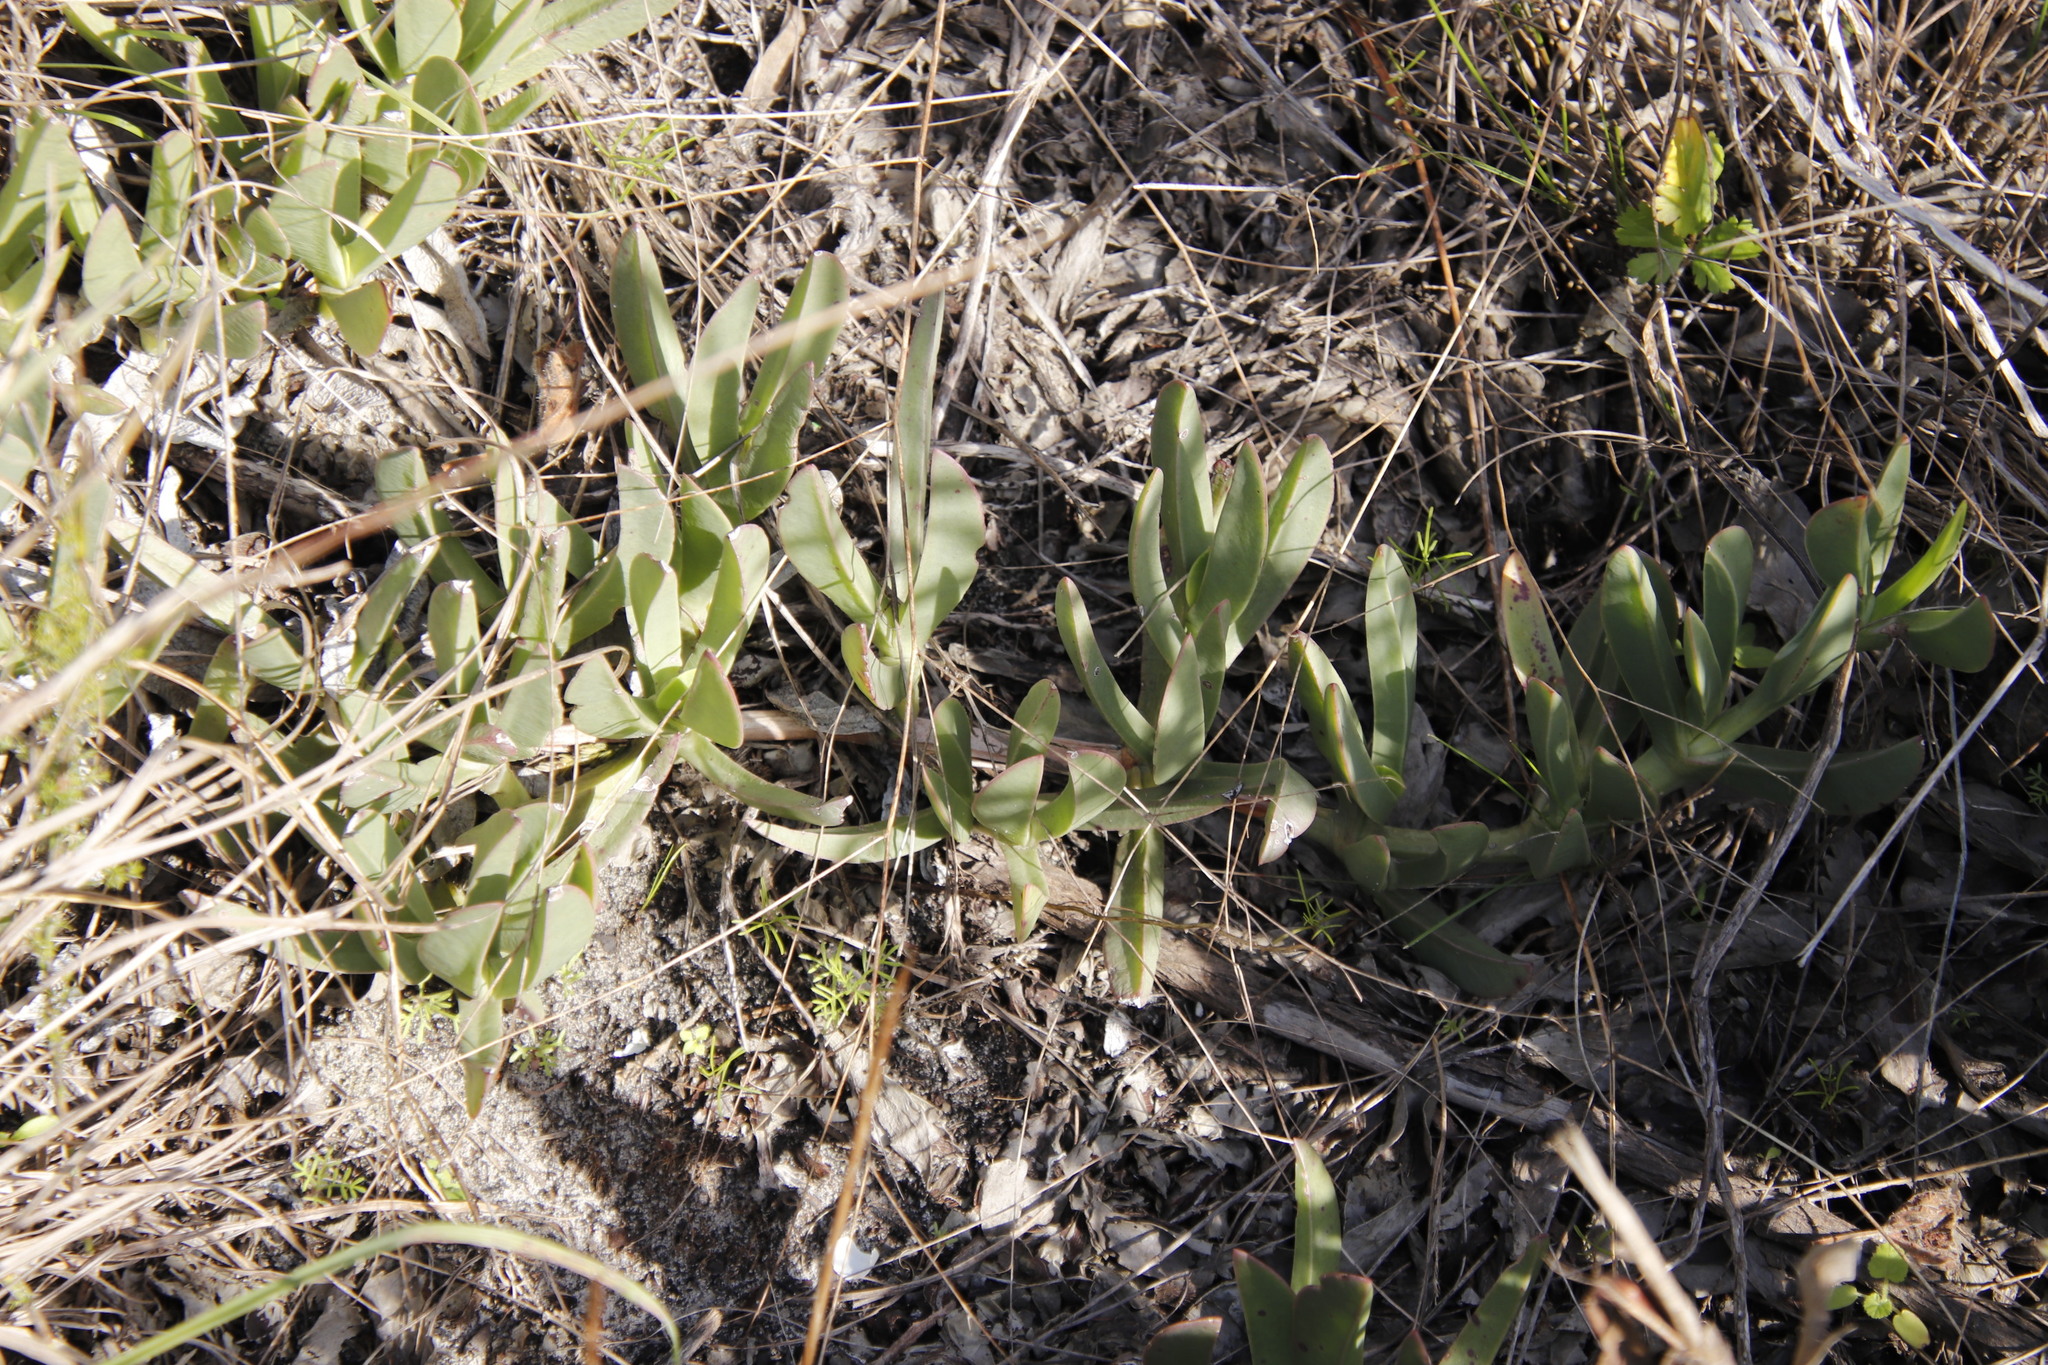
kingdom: Plantae
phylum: Tracheophyta
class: Magnoliopsida
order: Caryophyllales
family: Aizoaceae
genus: Carpobrotus
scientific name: Carpobrotus acinaciformis
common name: Sally-my-handsome
